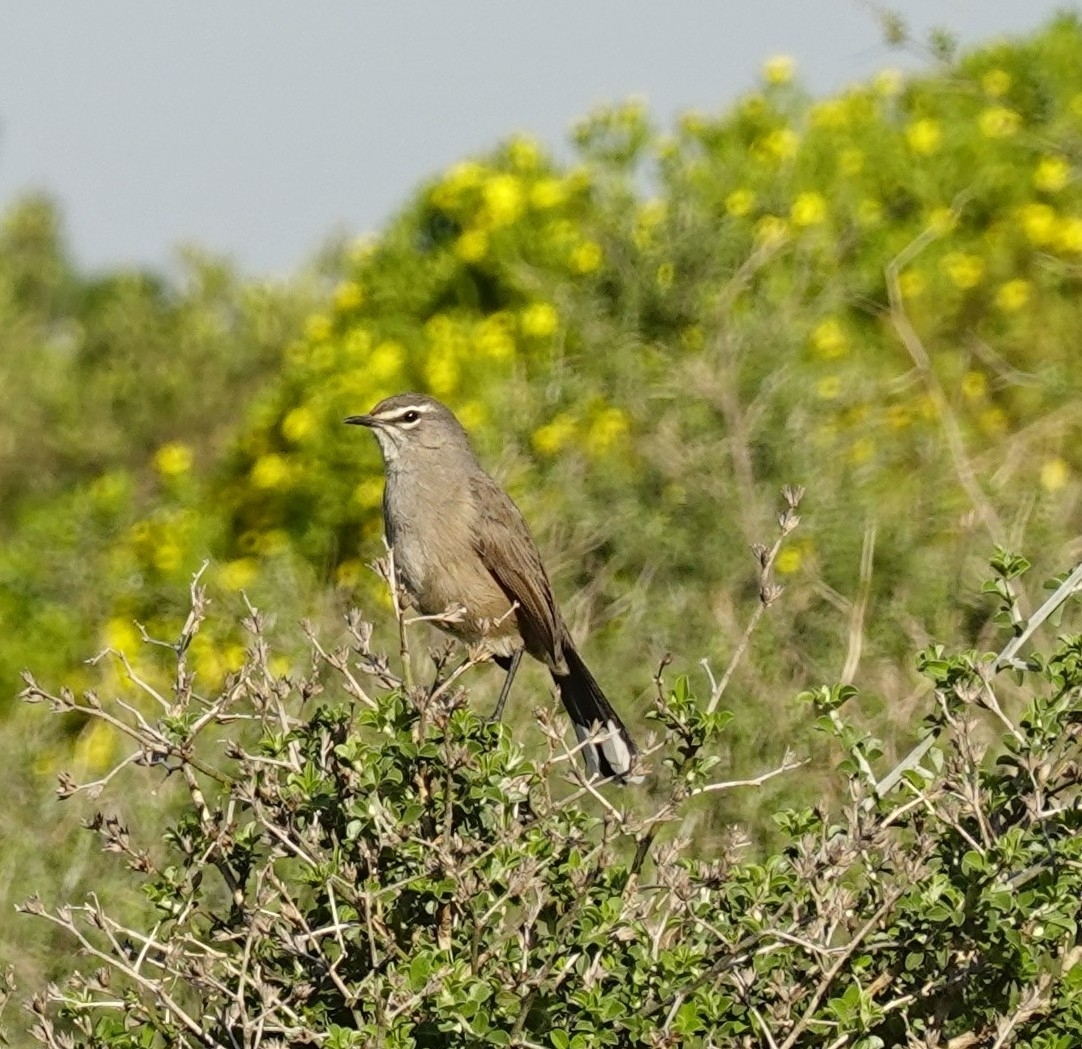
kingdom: Animalia
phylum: Chordata
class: Aves
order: Passeriformes
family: Muscicapidae
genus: Erythropygia
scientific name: Erythropygia coryphoeus
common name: Karoo scrub robin
